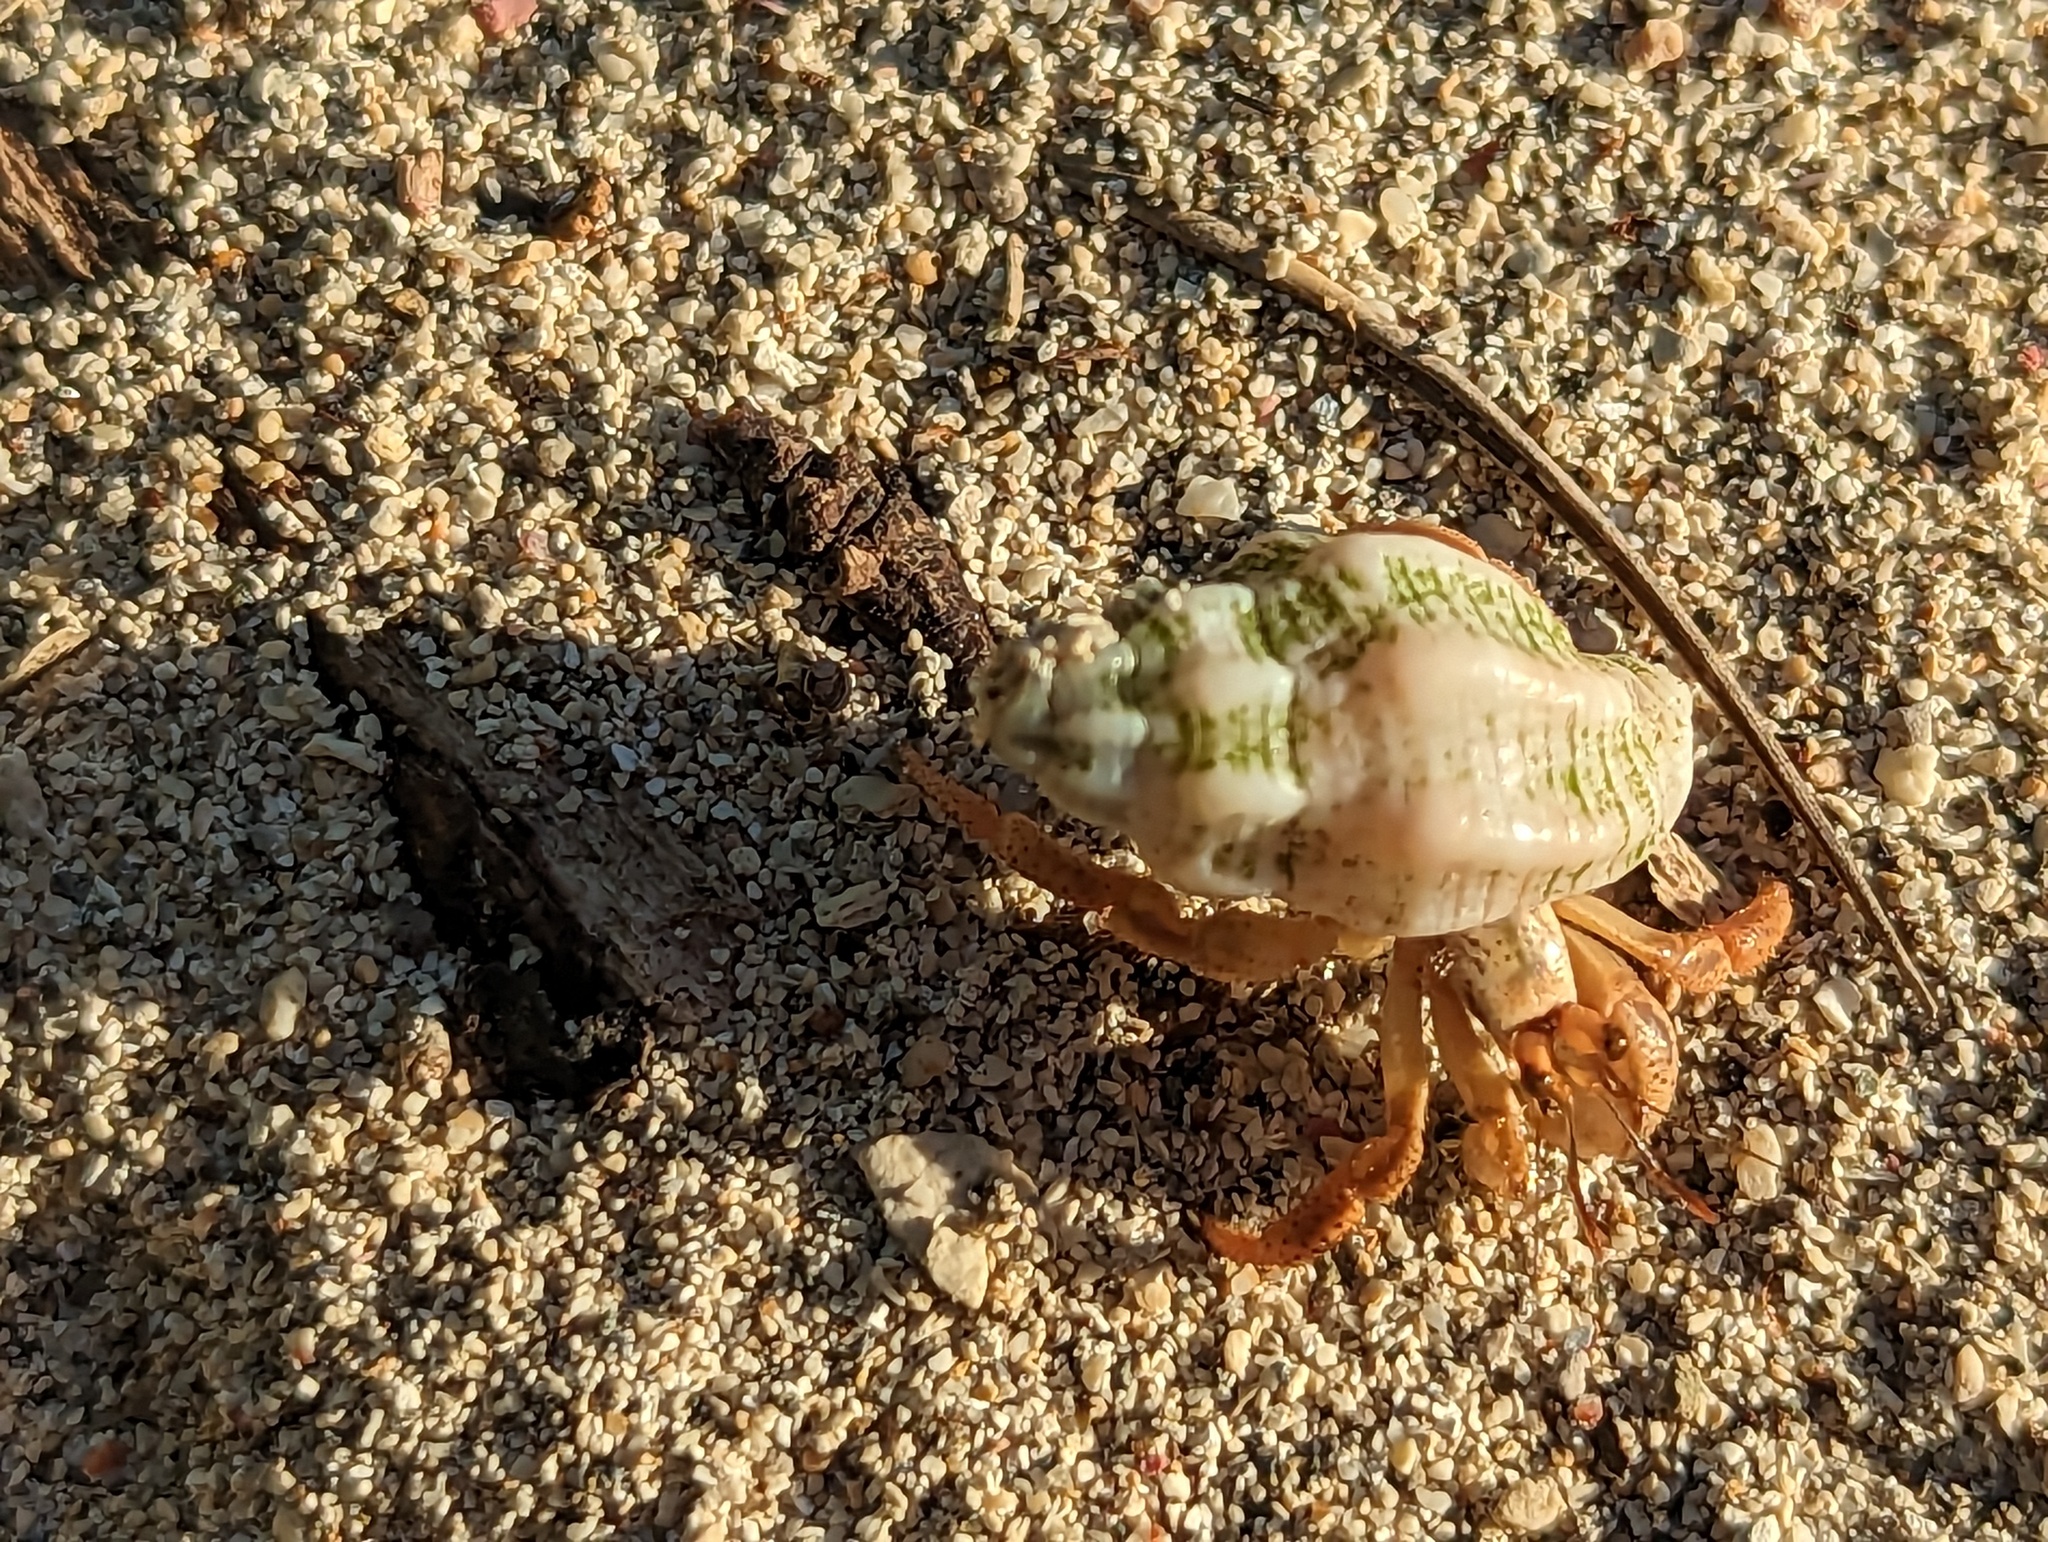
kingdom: Animalia
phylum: Arthropoda
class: Malacostraca
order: Decapoda
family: Coenobitidae
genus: Coenobita
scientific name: Coenobita clypeatus
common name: Caribbean hermit crab
